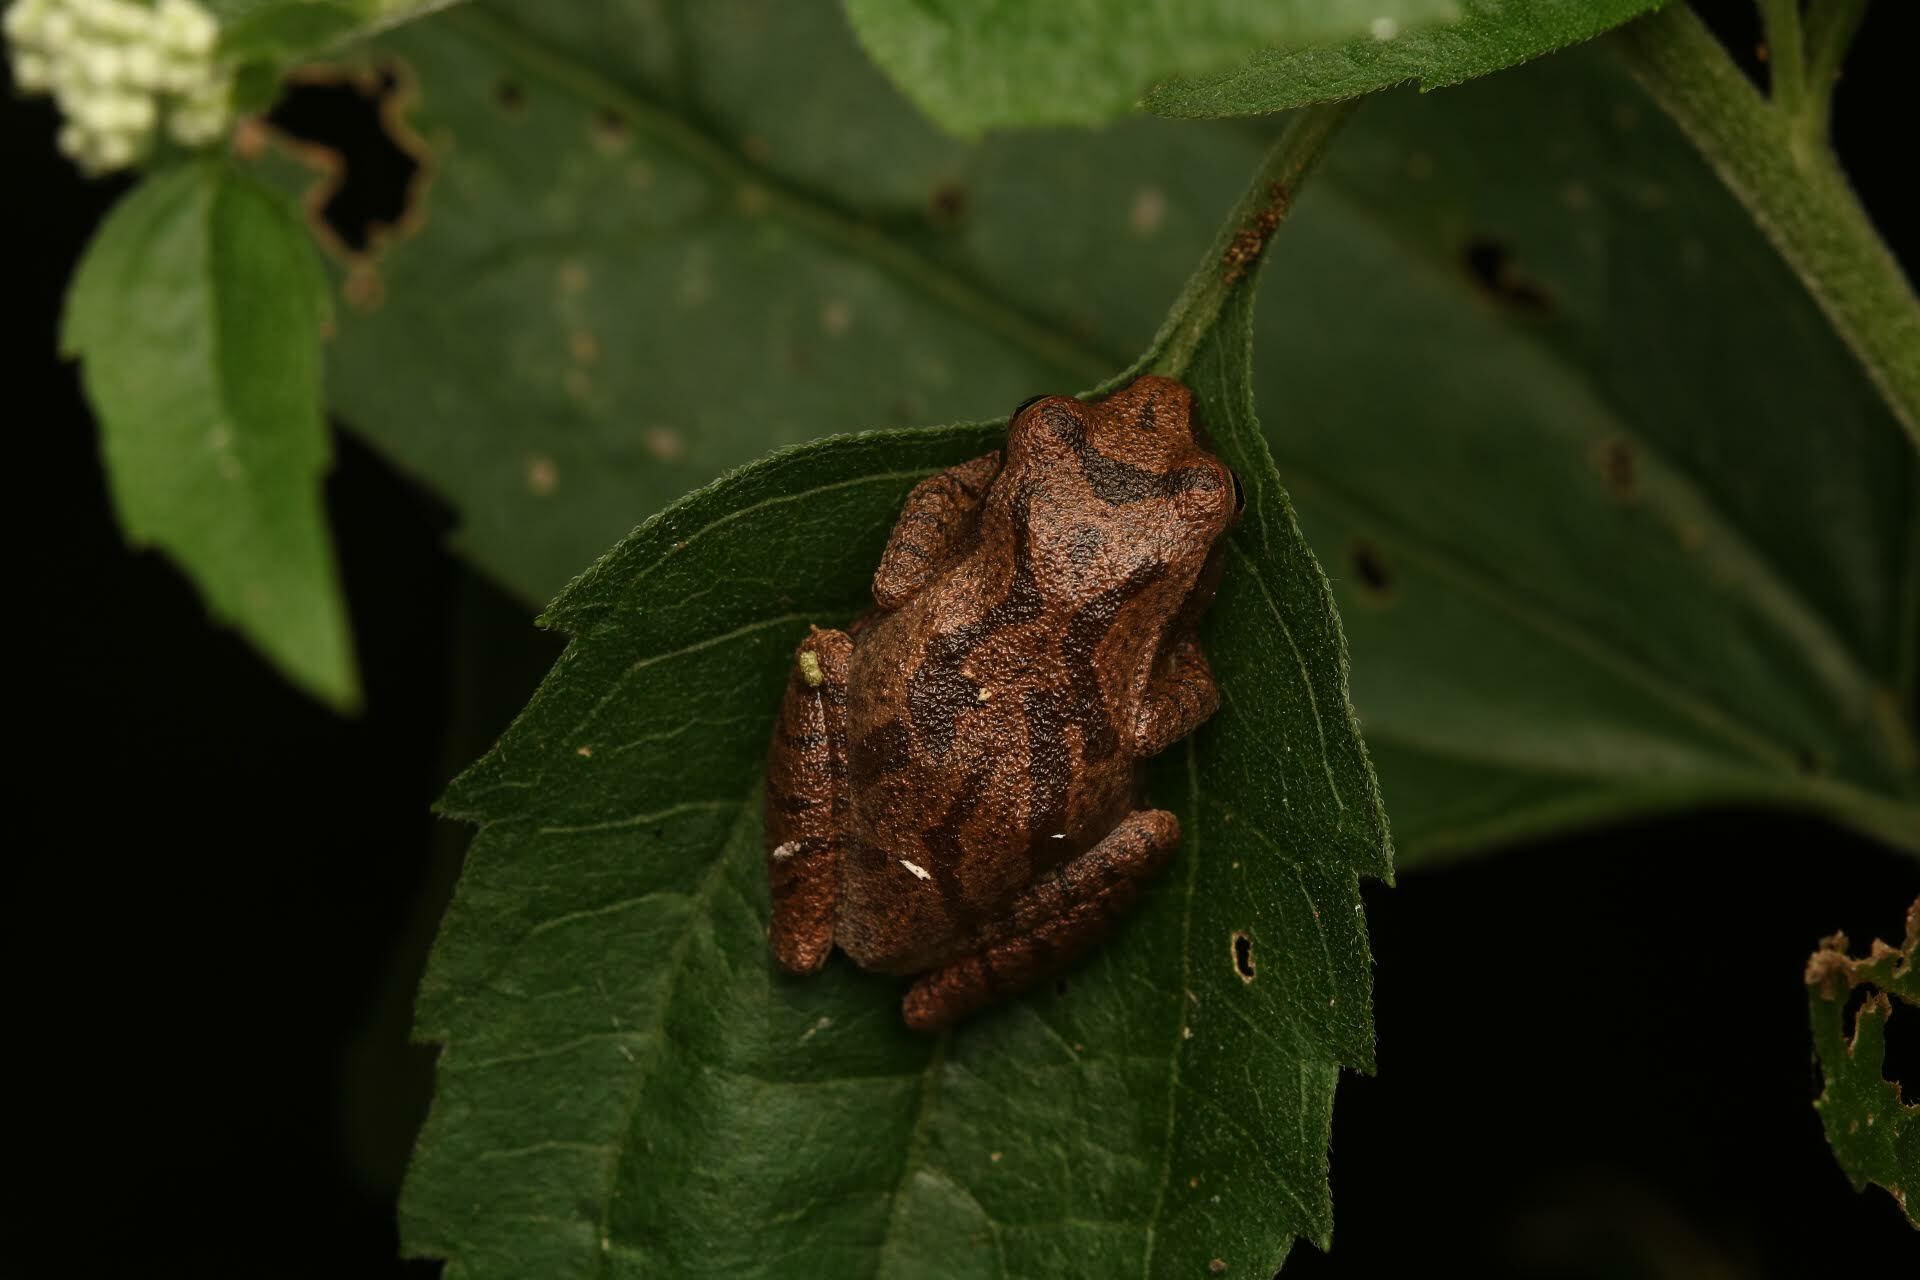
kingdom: Animalia
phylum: Chordata
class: Amphibia
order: Anura
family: Hylidae
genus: Pseudacris
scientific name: Pseudacris crucifer
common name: Spring peeper
